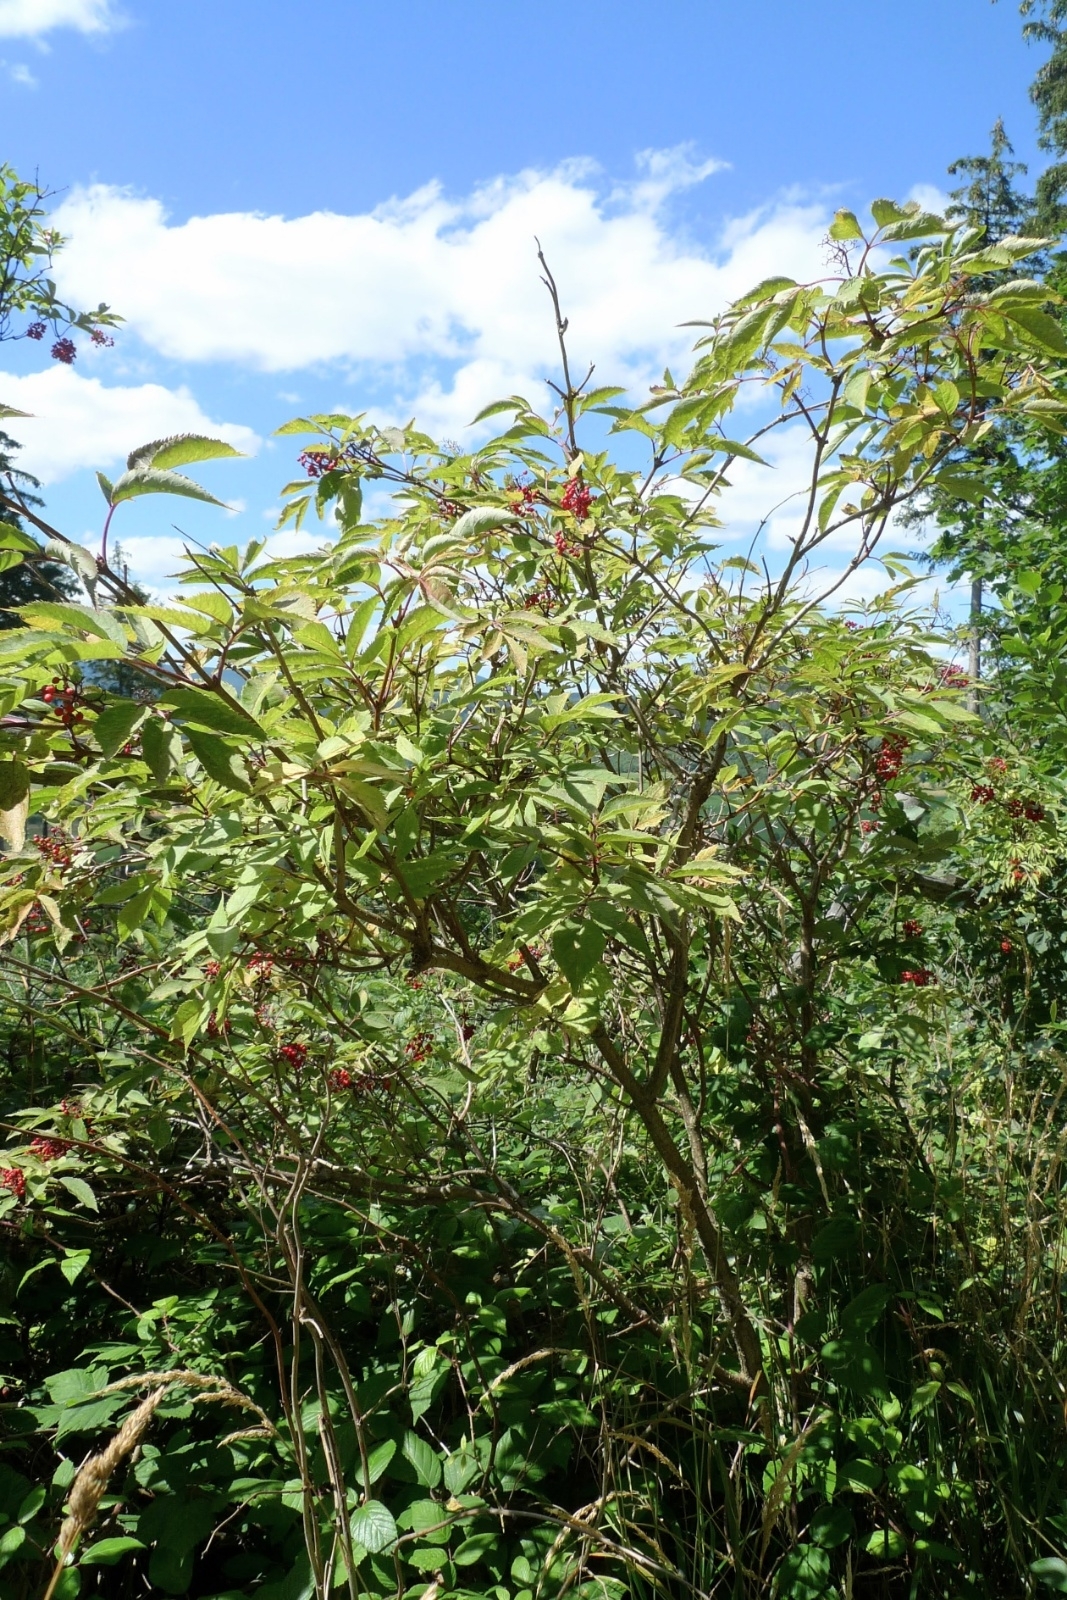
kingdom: Plantae
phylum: Tracheophyta
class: Magnoliopsida
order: Dipsacales
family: Viburnaceae
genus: Sambucus
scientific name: Sambucus racemosa
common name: Red-berried elder
